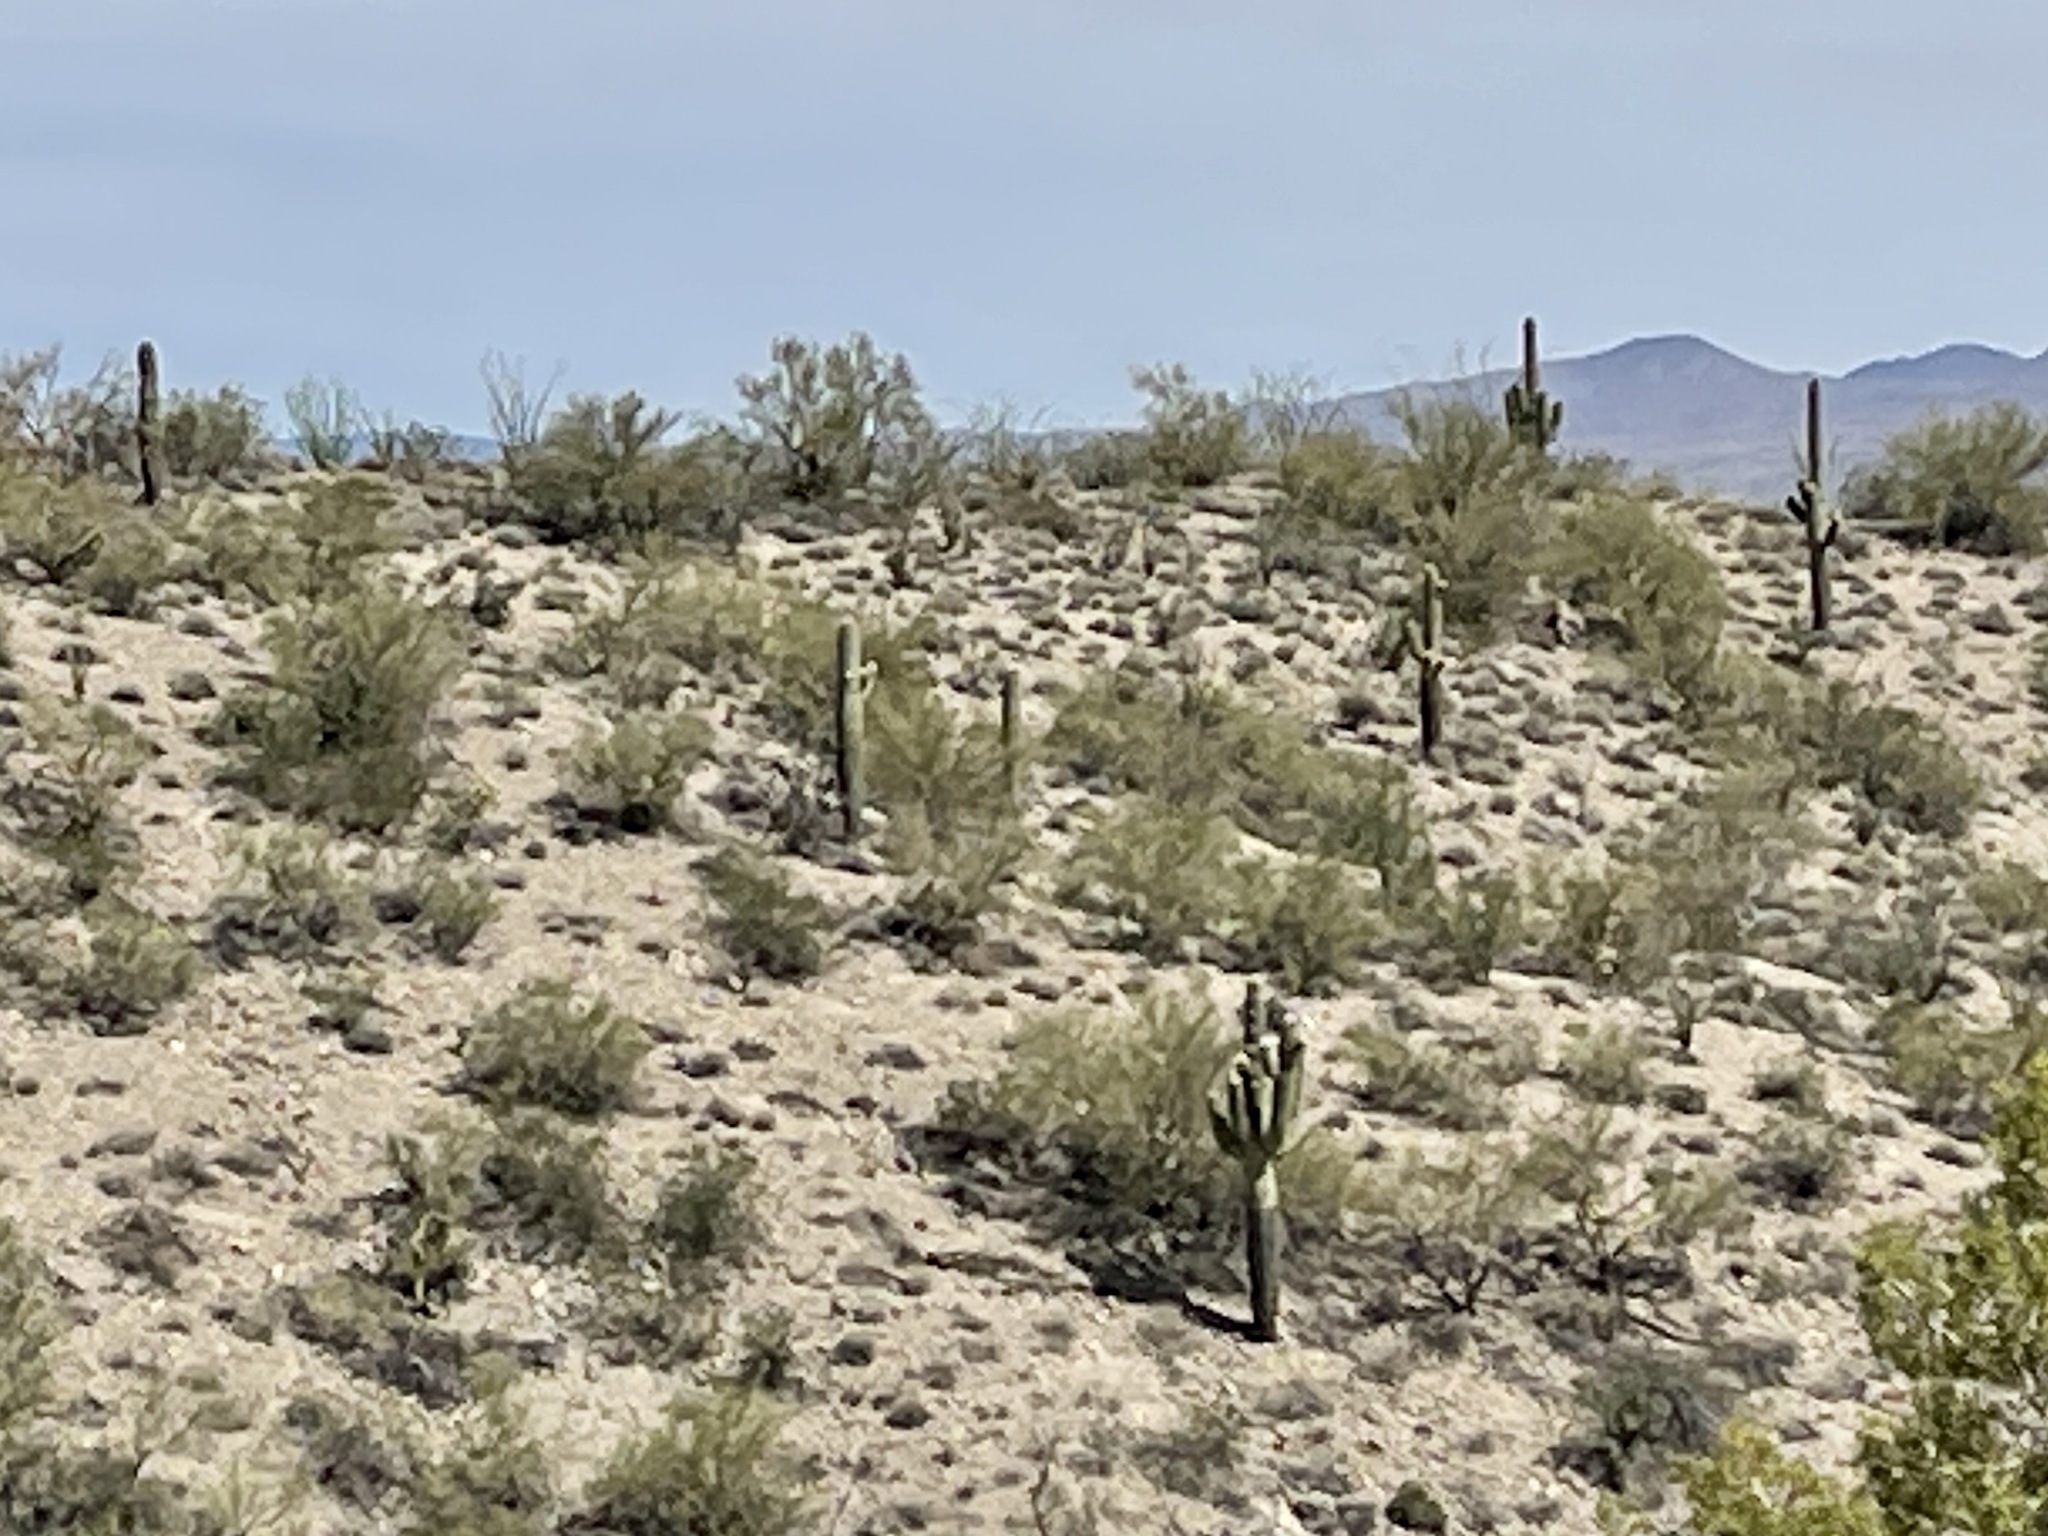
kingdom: Plantae
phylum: Tracheophyta
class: Magnoliopsida
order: Caryophyllales
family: Cactaceae
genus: Carnegiea
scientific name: Carnegiea gigantea
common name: Saguaro
